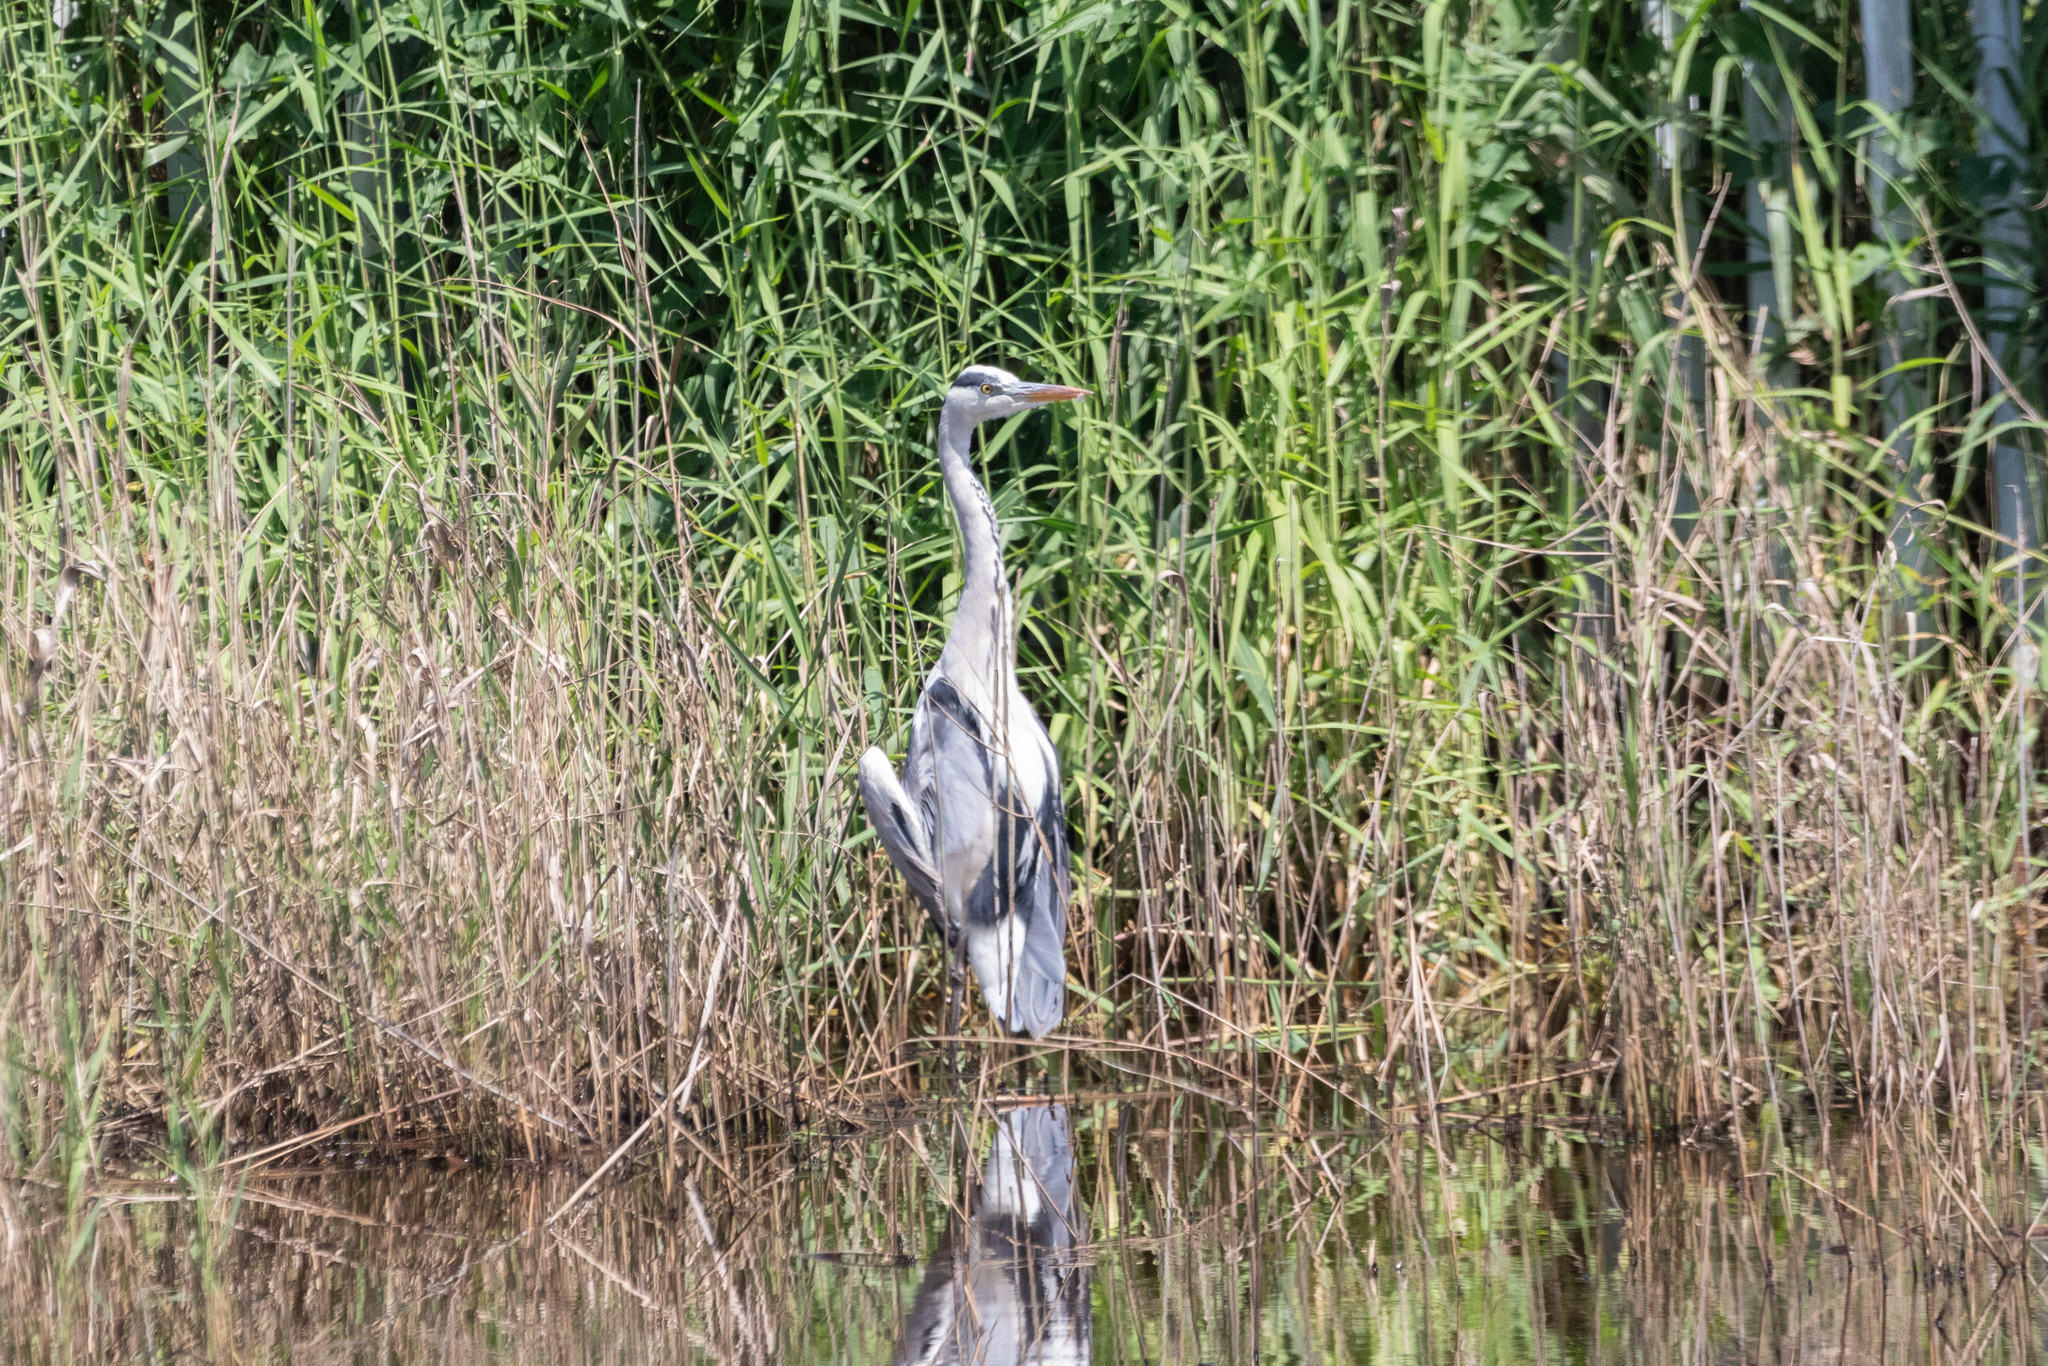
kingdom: Animalia
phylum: Chordata
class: Aves
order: Pelecaniformes
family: Ardeidae
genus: Ardea
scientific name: Ardea cinerea
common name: Grey heron
